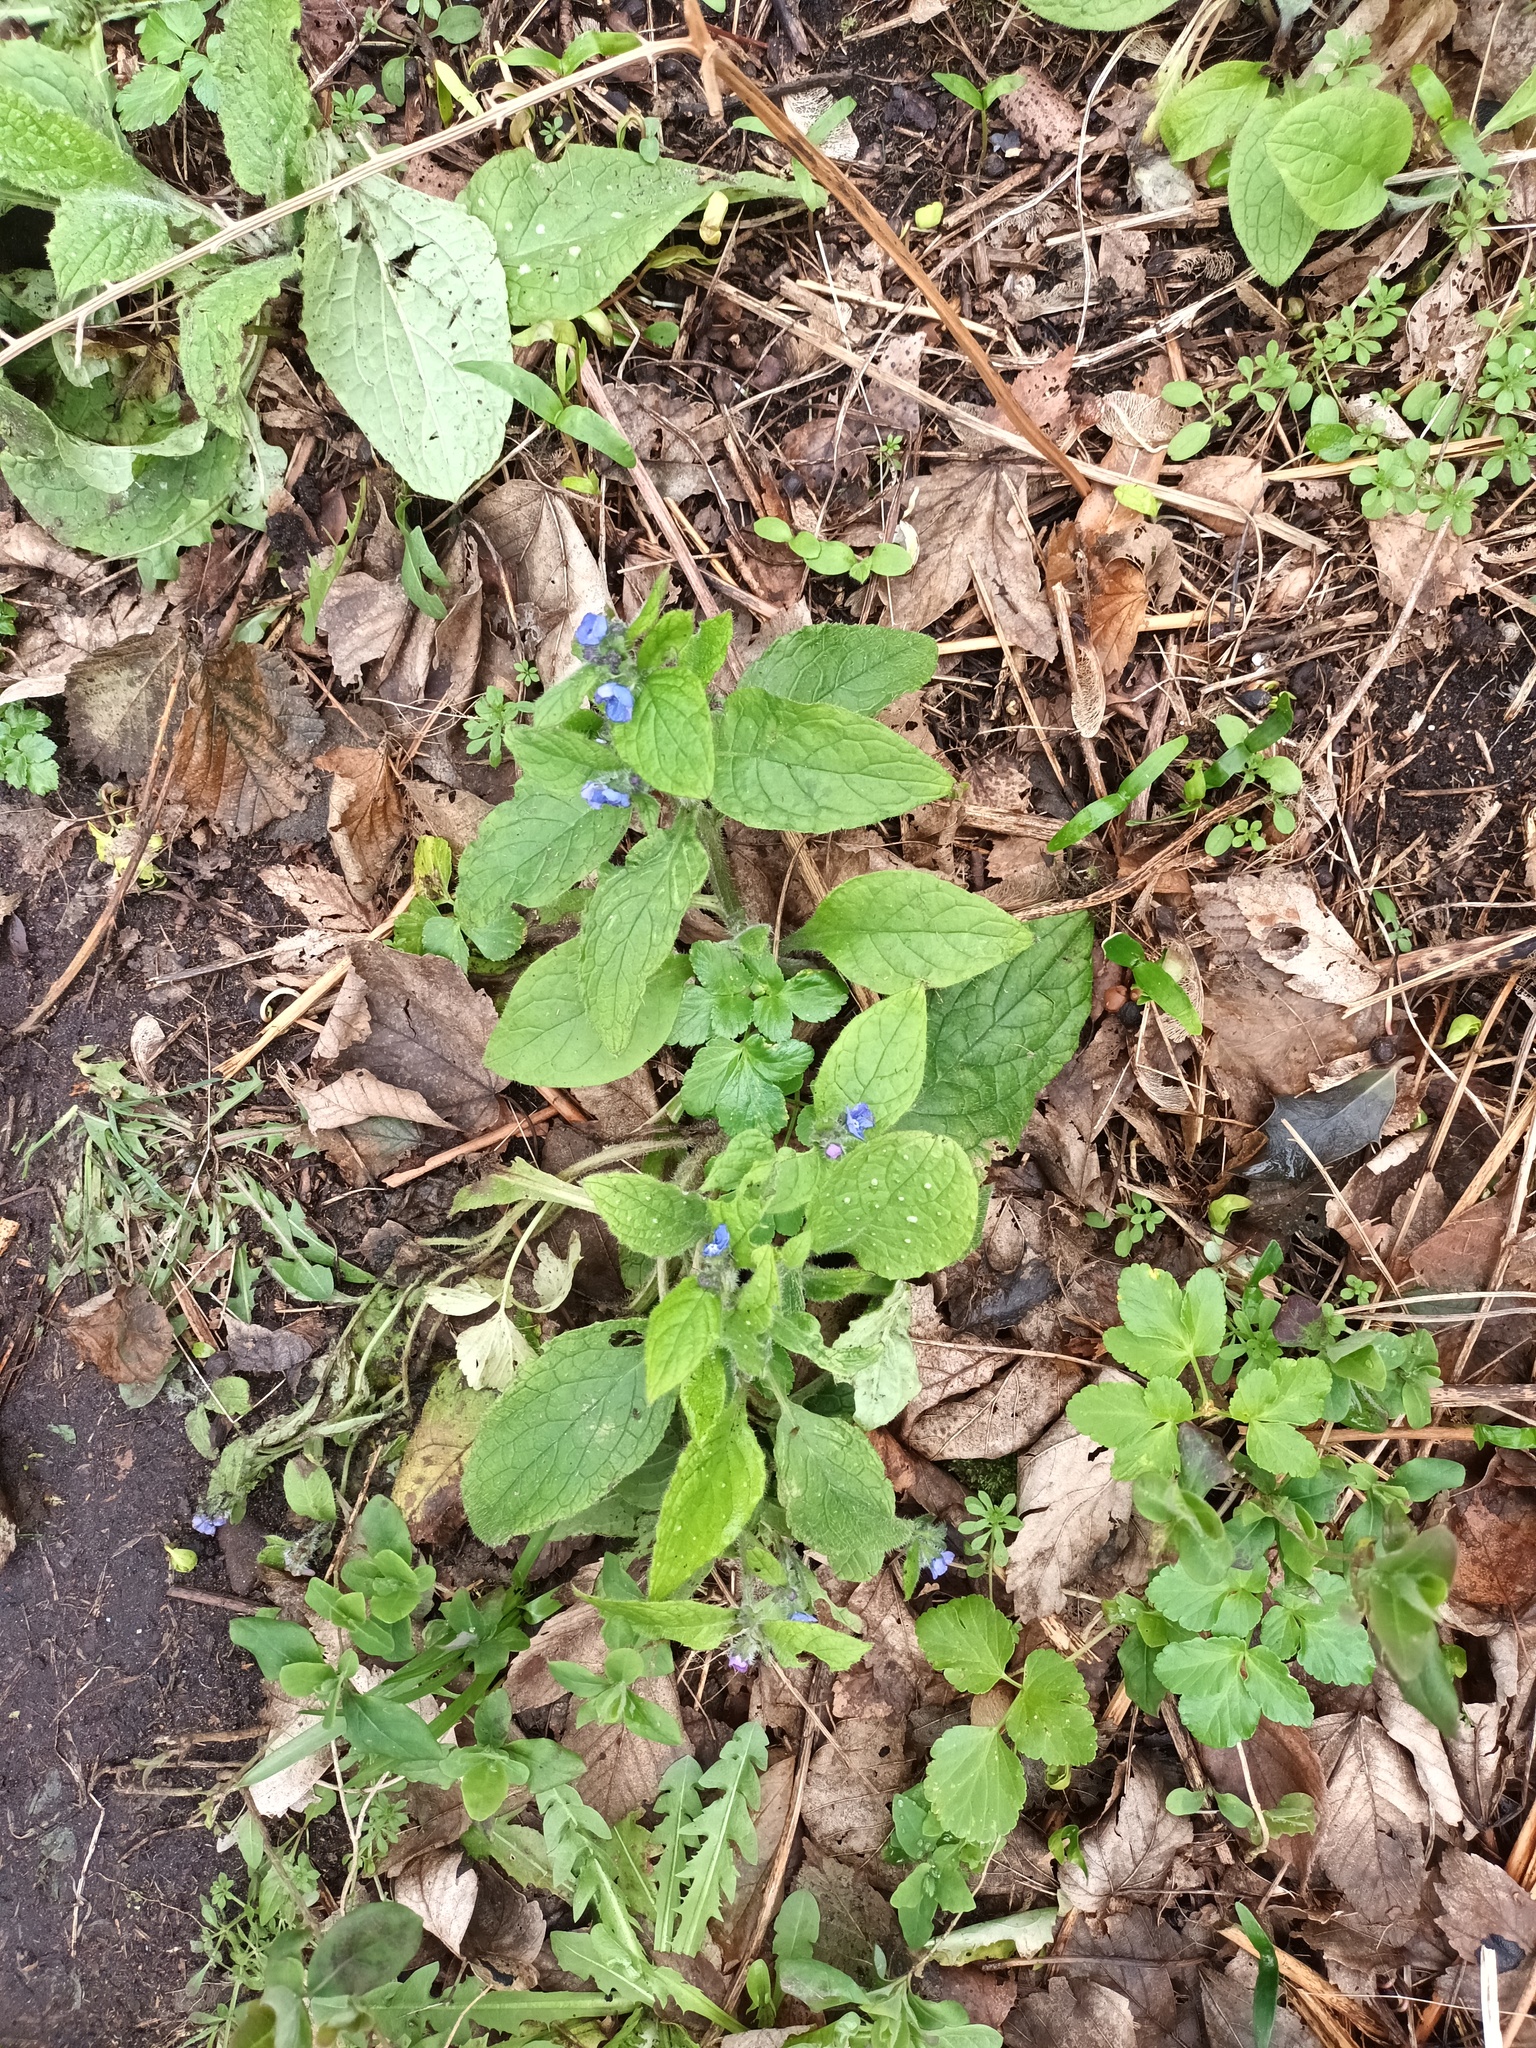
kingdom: Plantae
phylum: Tracheophyta
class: Magnoliopsida
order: Boraginales
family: Boraginaceae
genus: Pentaglottis
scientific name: Pentaglottis sempervirens
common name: Green alkanet
